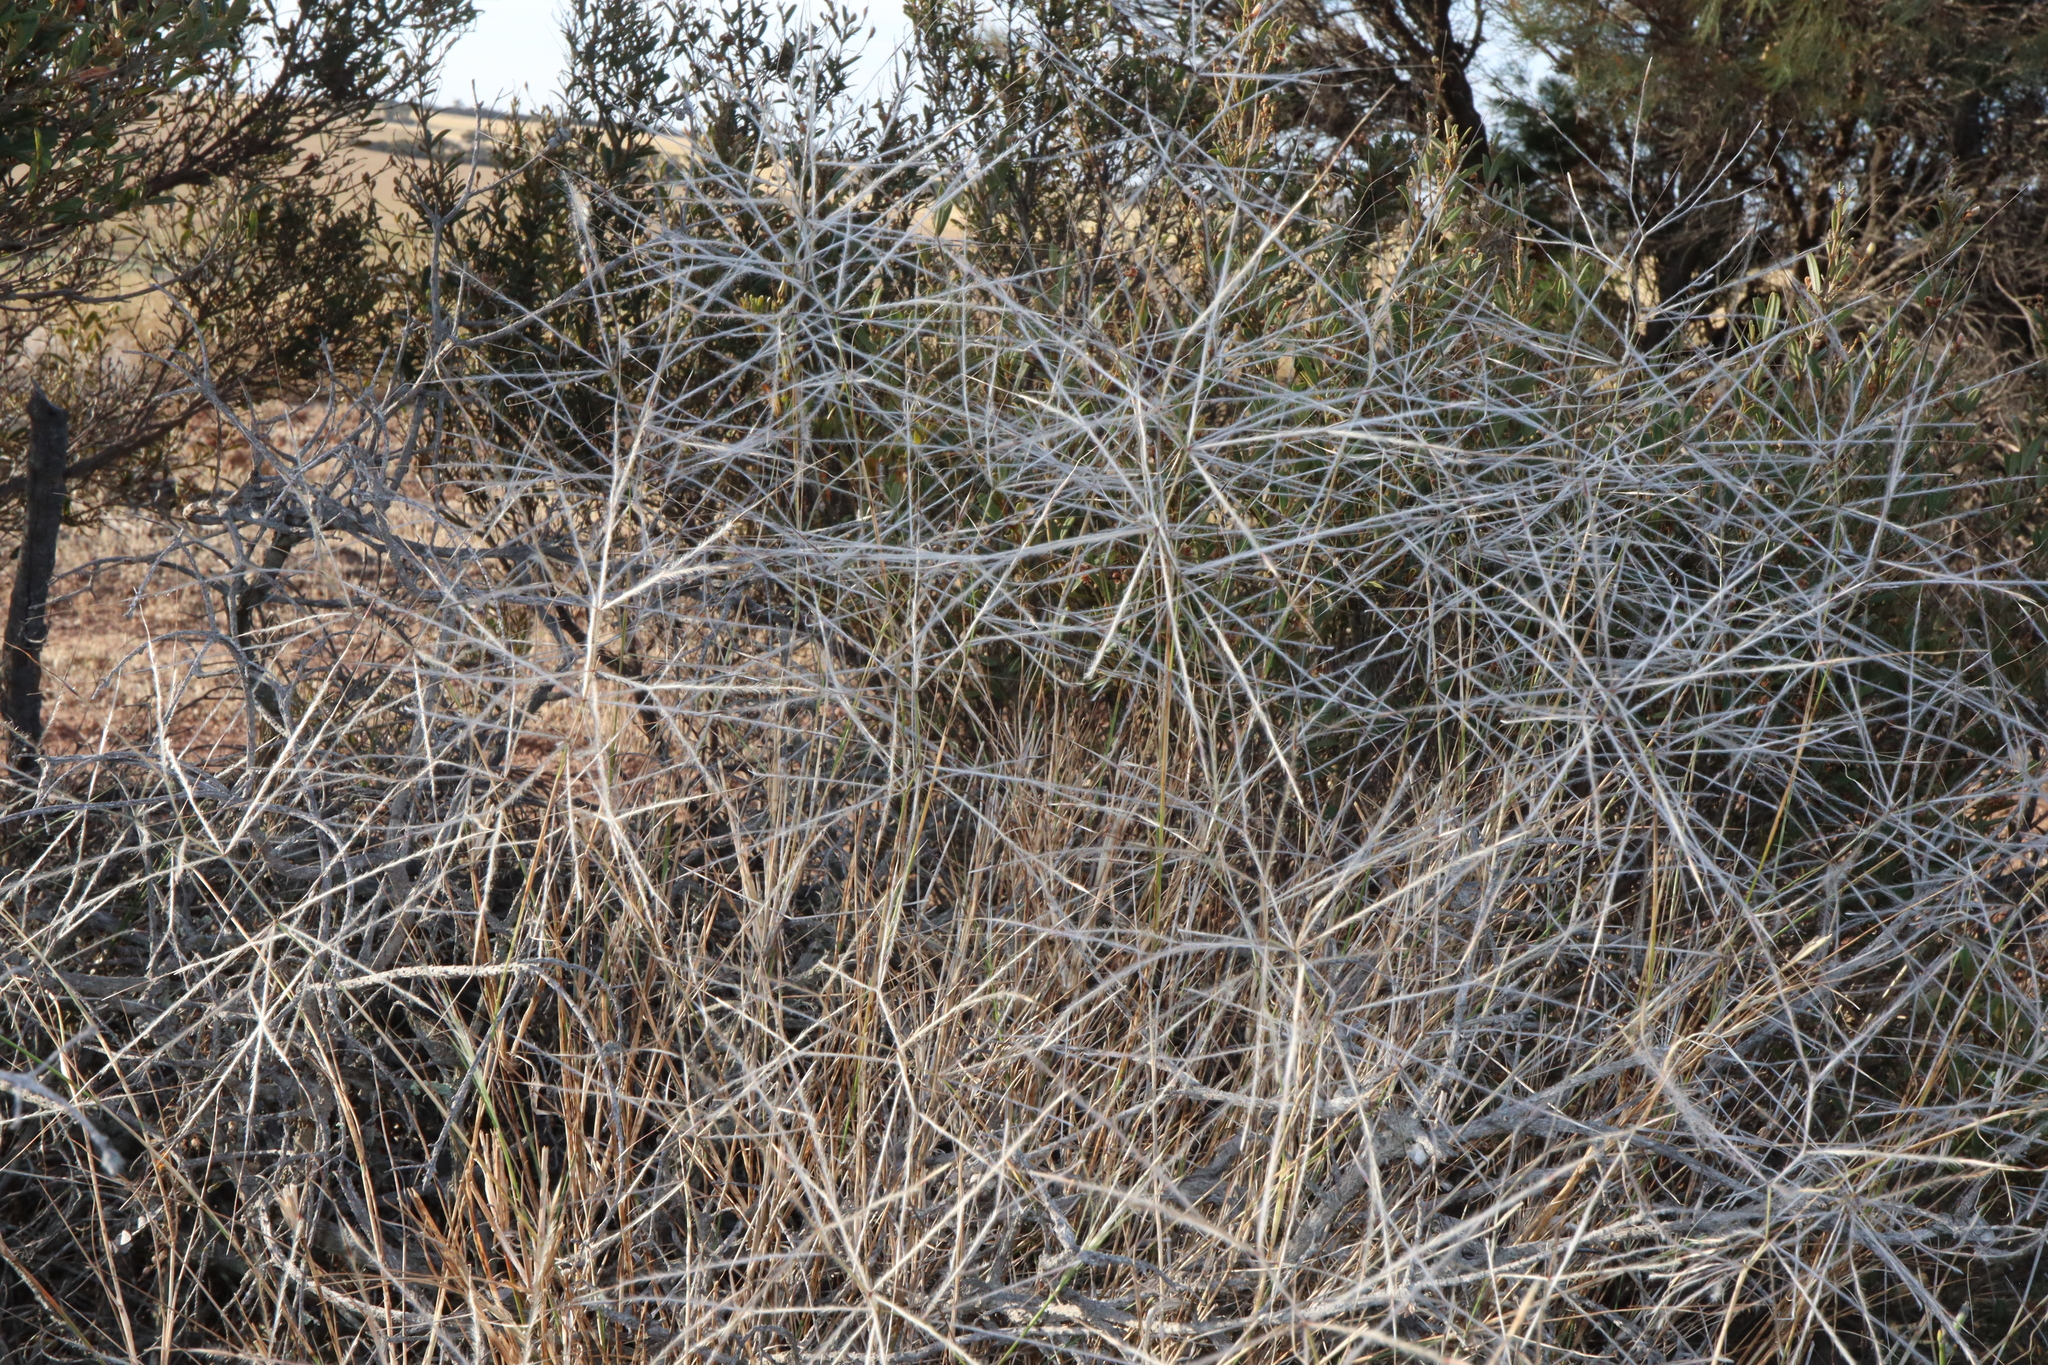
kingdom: Plantae
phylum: Tracheophyta
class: Liliopsida
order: Poales
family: Poaceae
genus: Austrostipa
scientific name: Austrostipa elegantissima
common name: Feather spear grass
